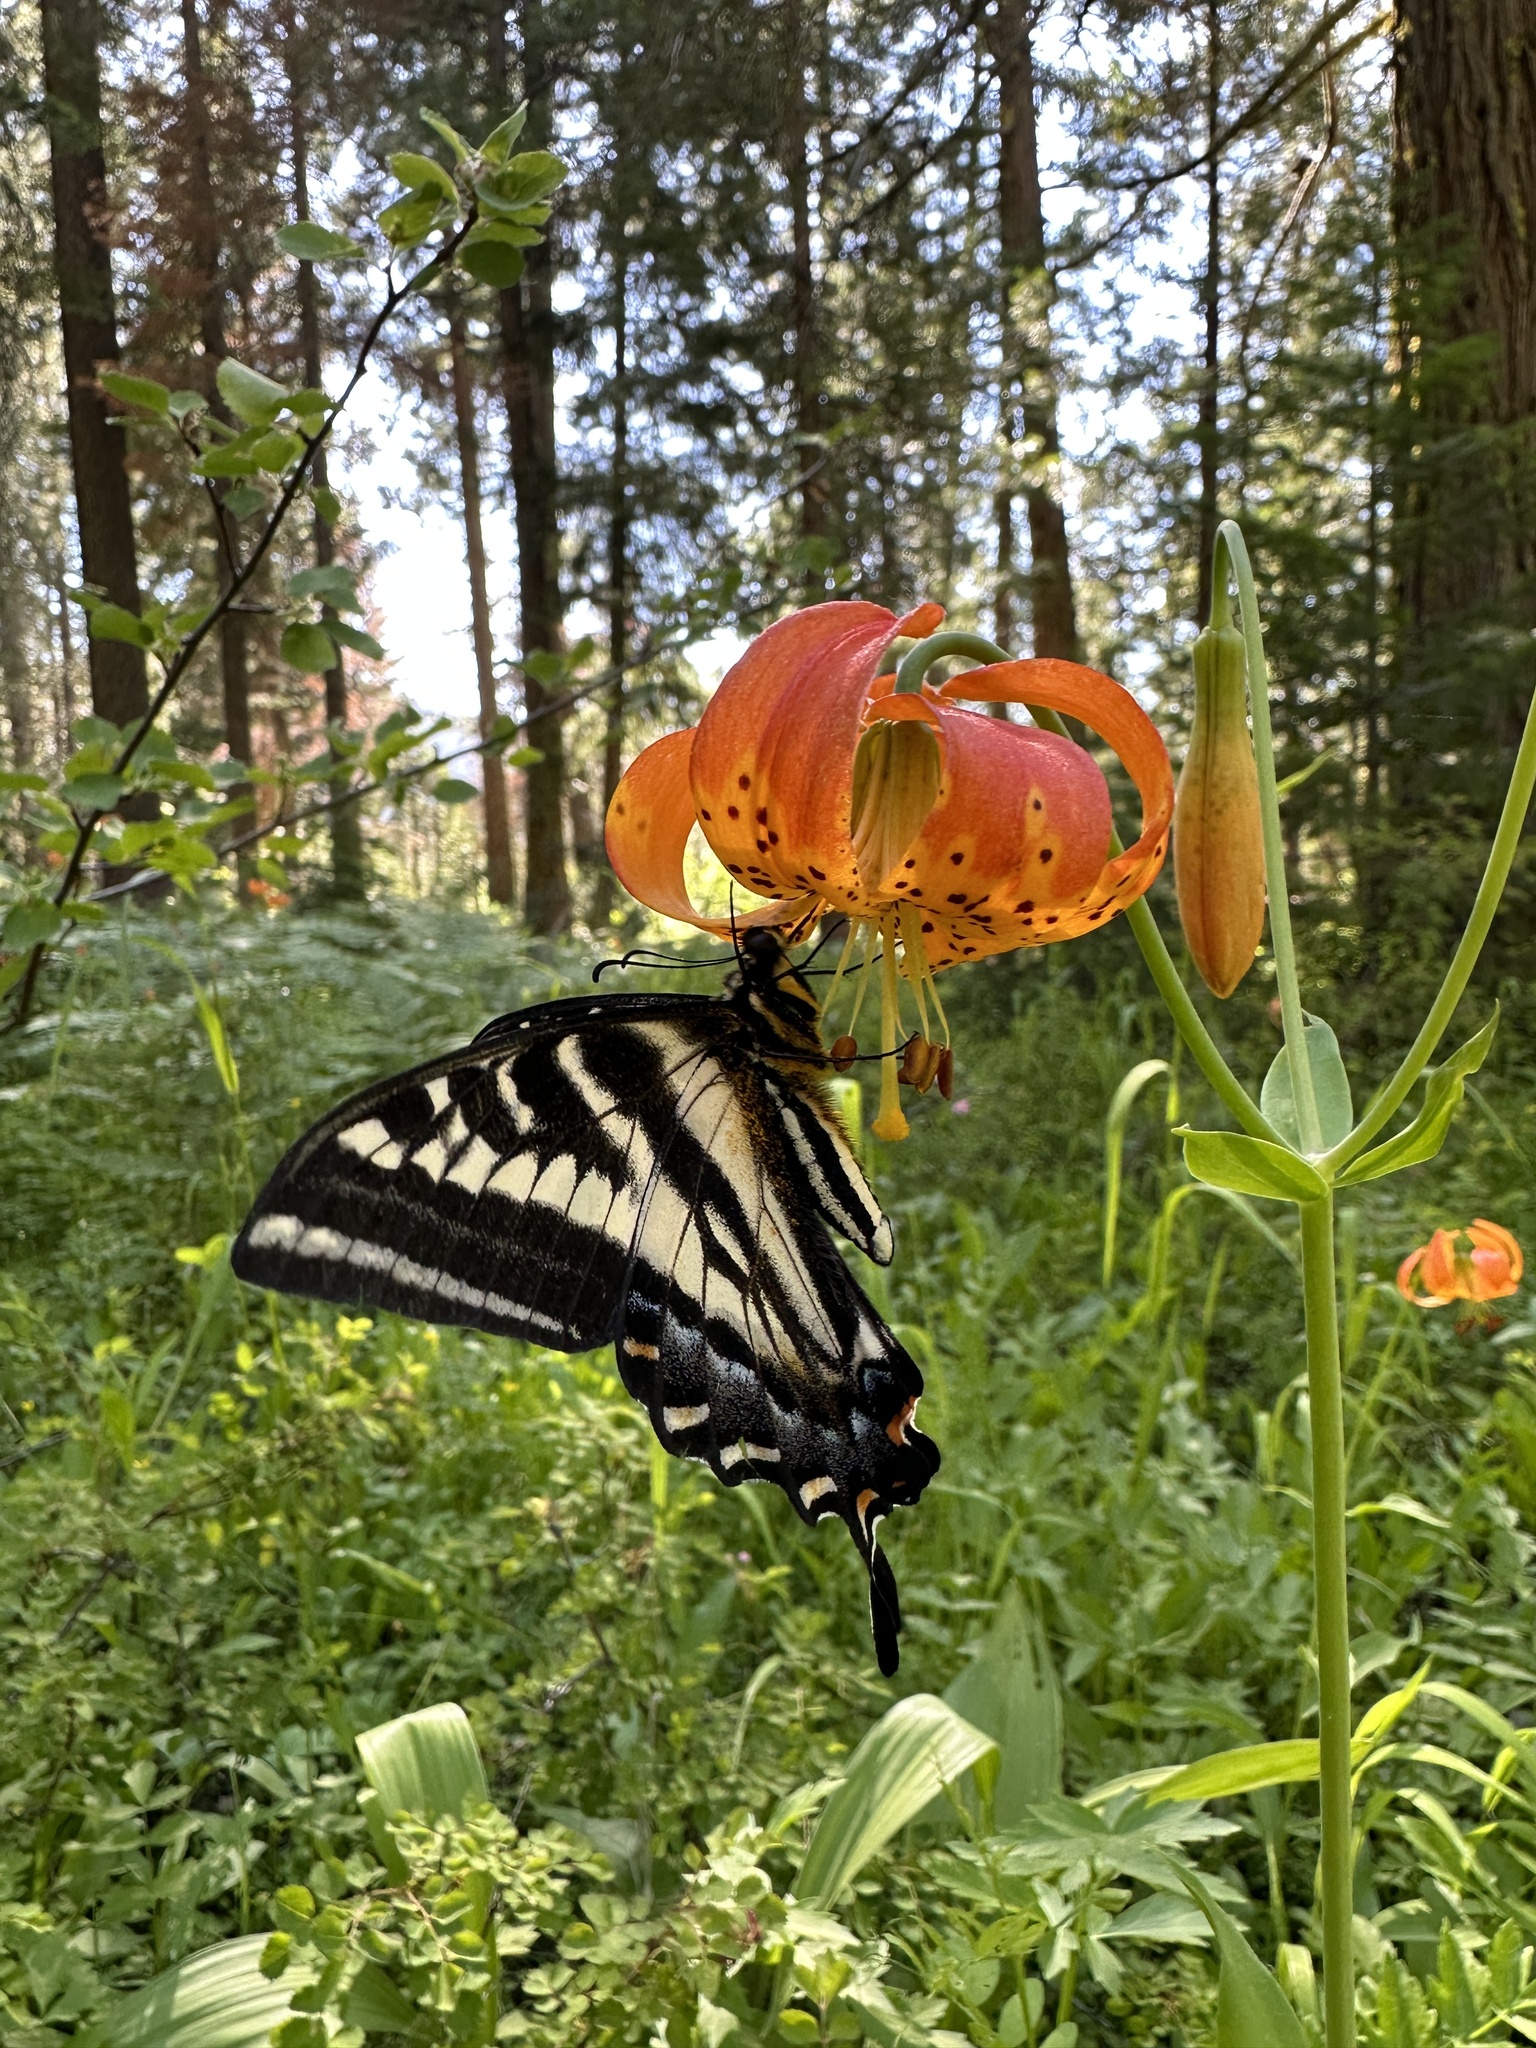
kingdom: Animalia
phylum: Arthropoda
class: Insecta
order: Lepidoptera
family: Papilionidae
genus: Papilio
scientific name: Papilio eurymedon
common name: Pale tiger swallowtail
